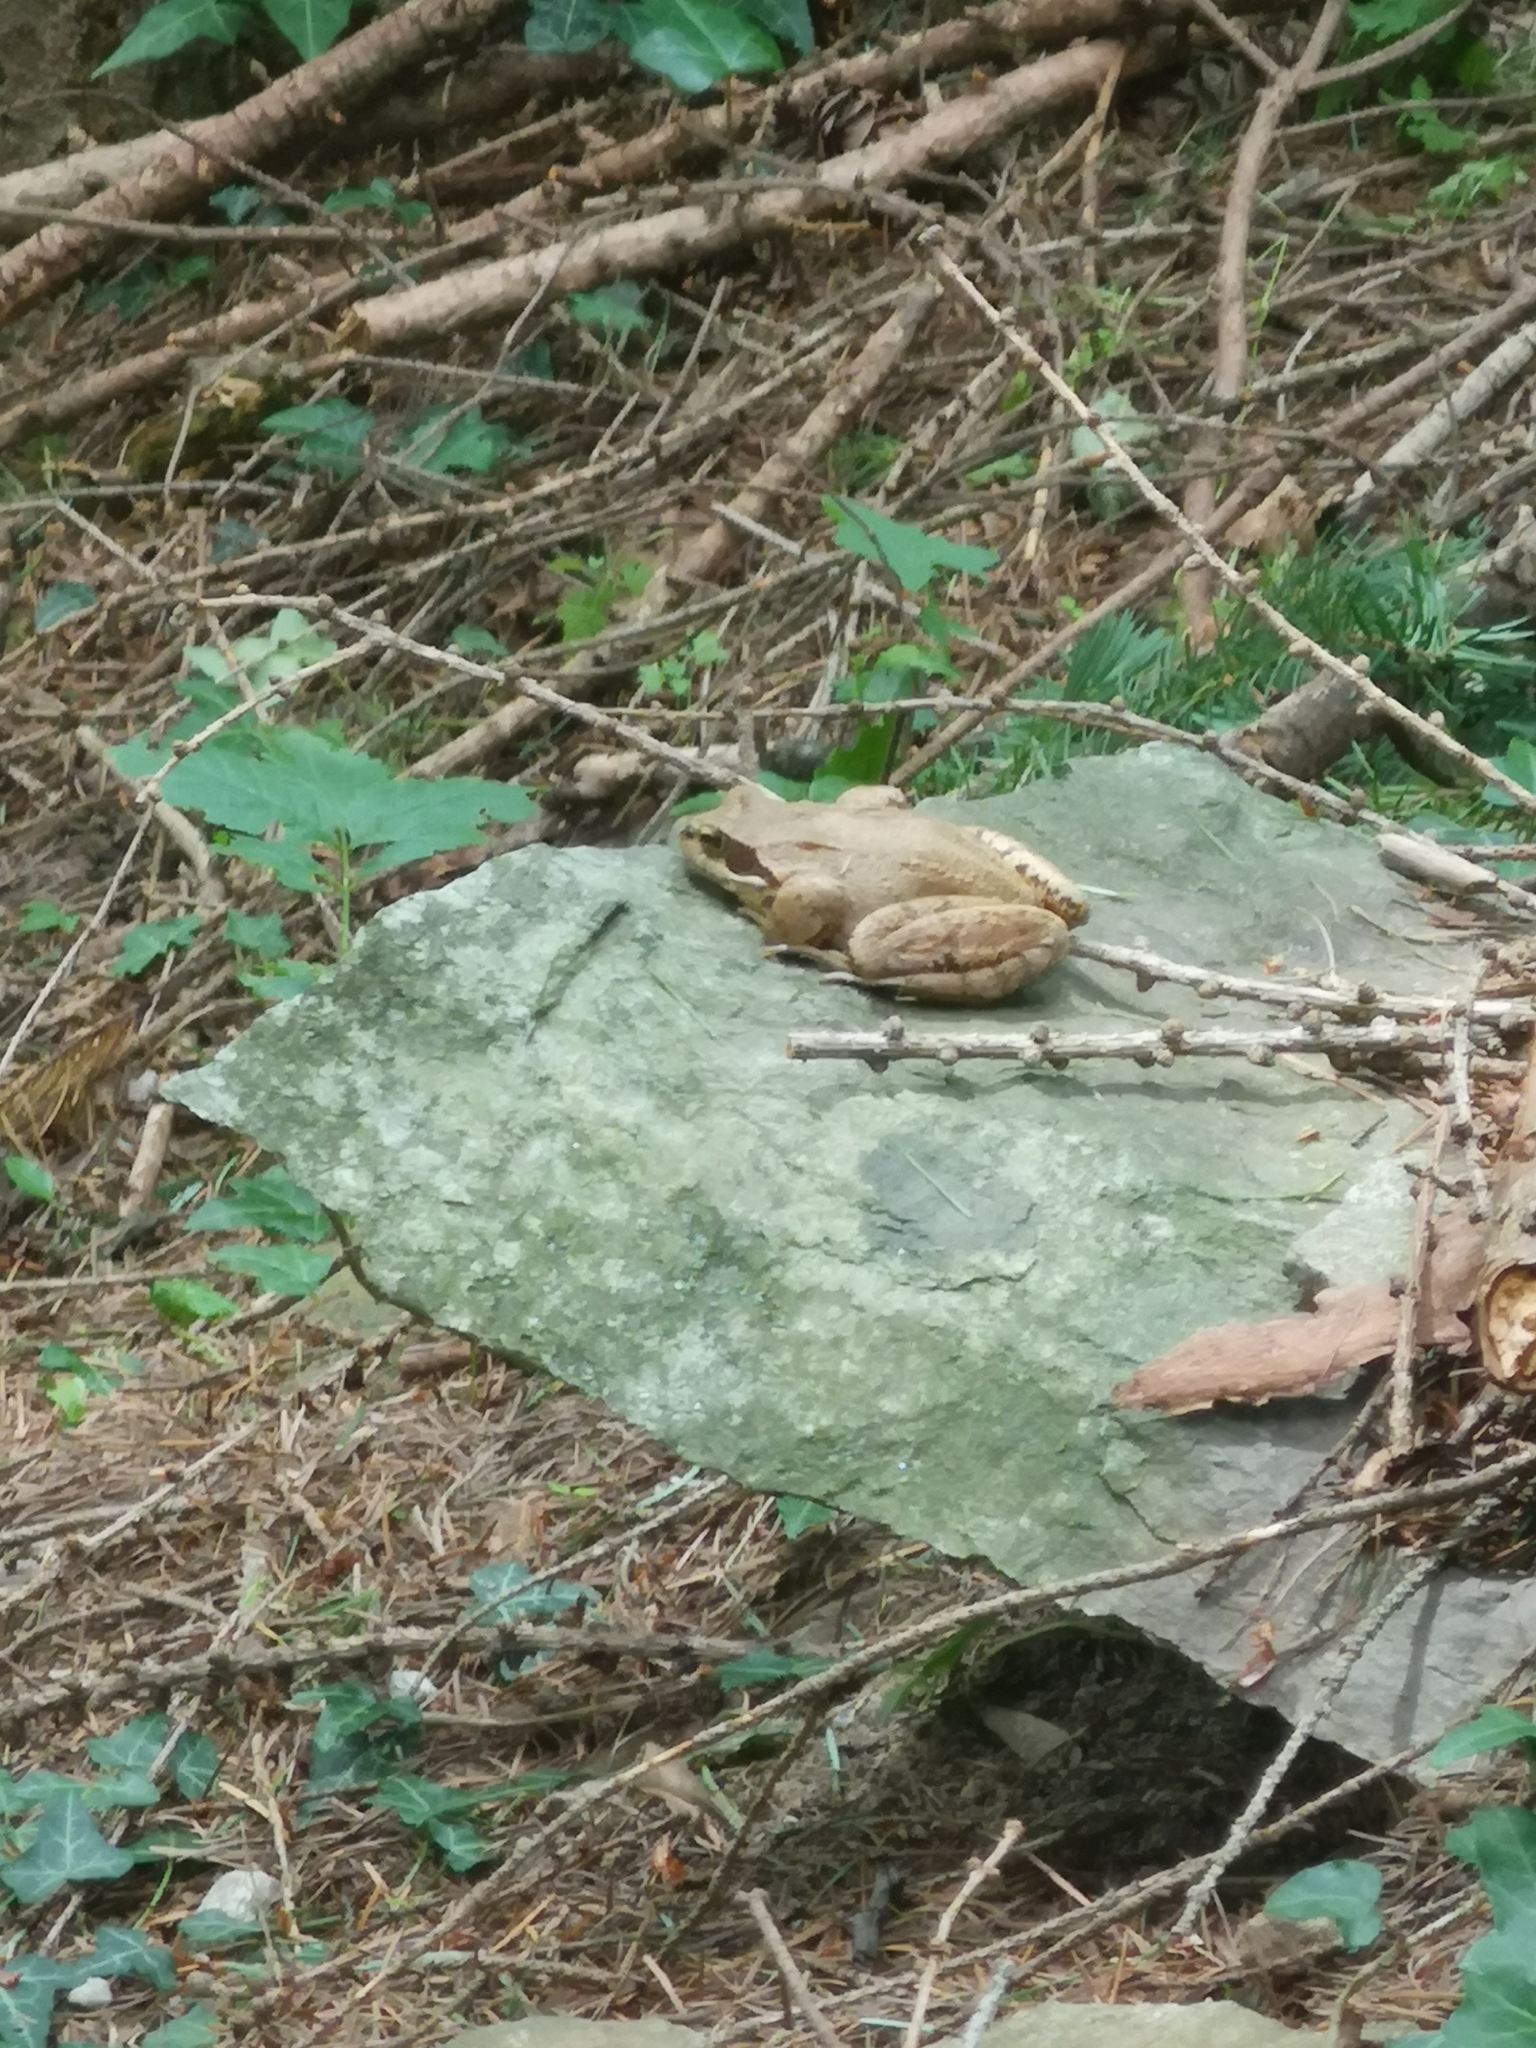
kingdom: Animalia
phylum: Chordata
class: Amphibia
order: Anura
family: Ranidae
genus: Rana
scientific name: Rana dalmatina
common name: Agile frog
